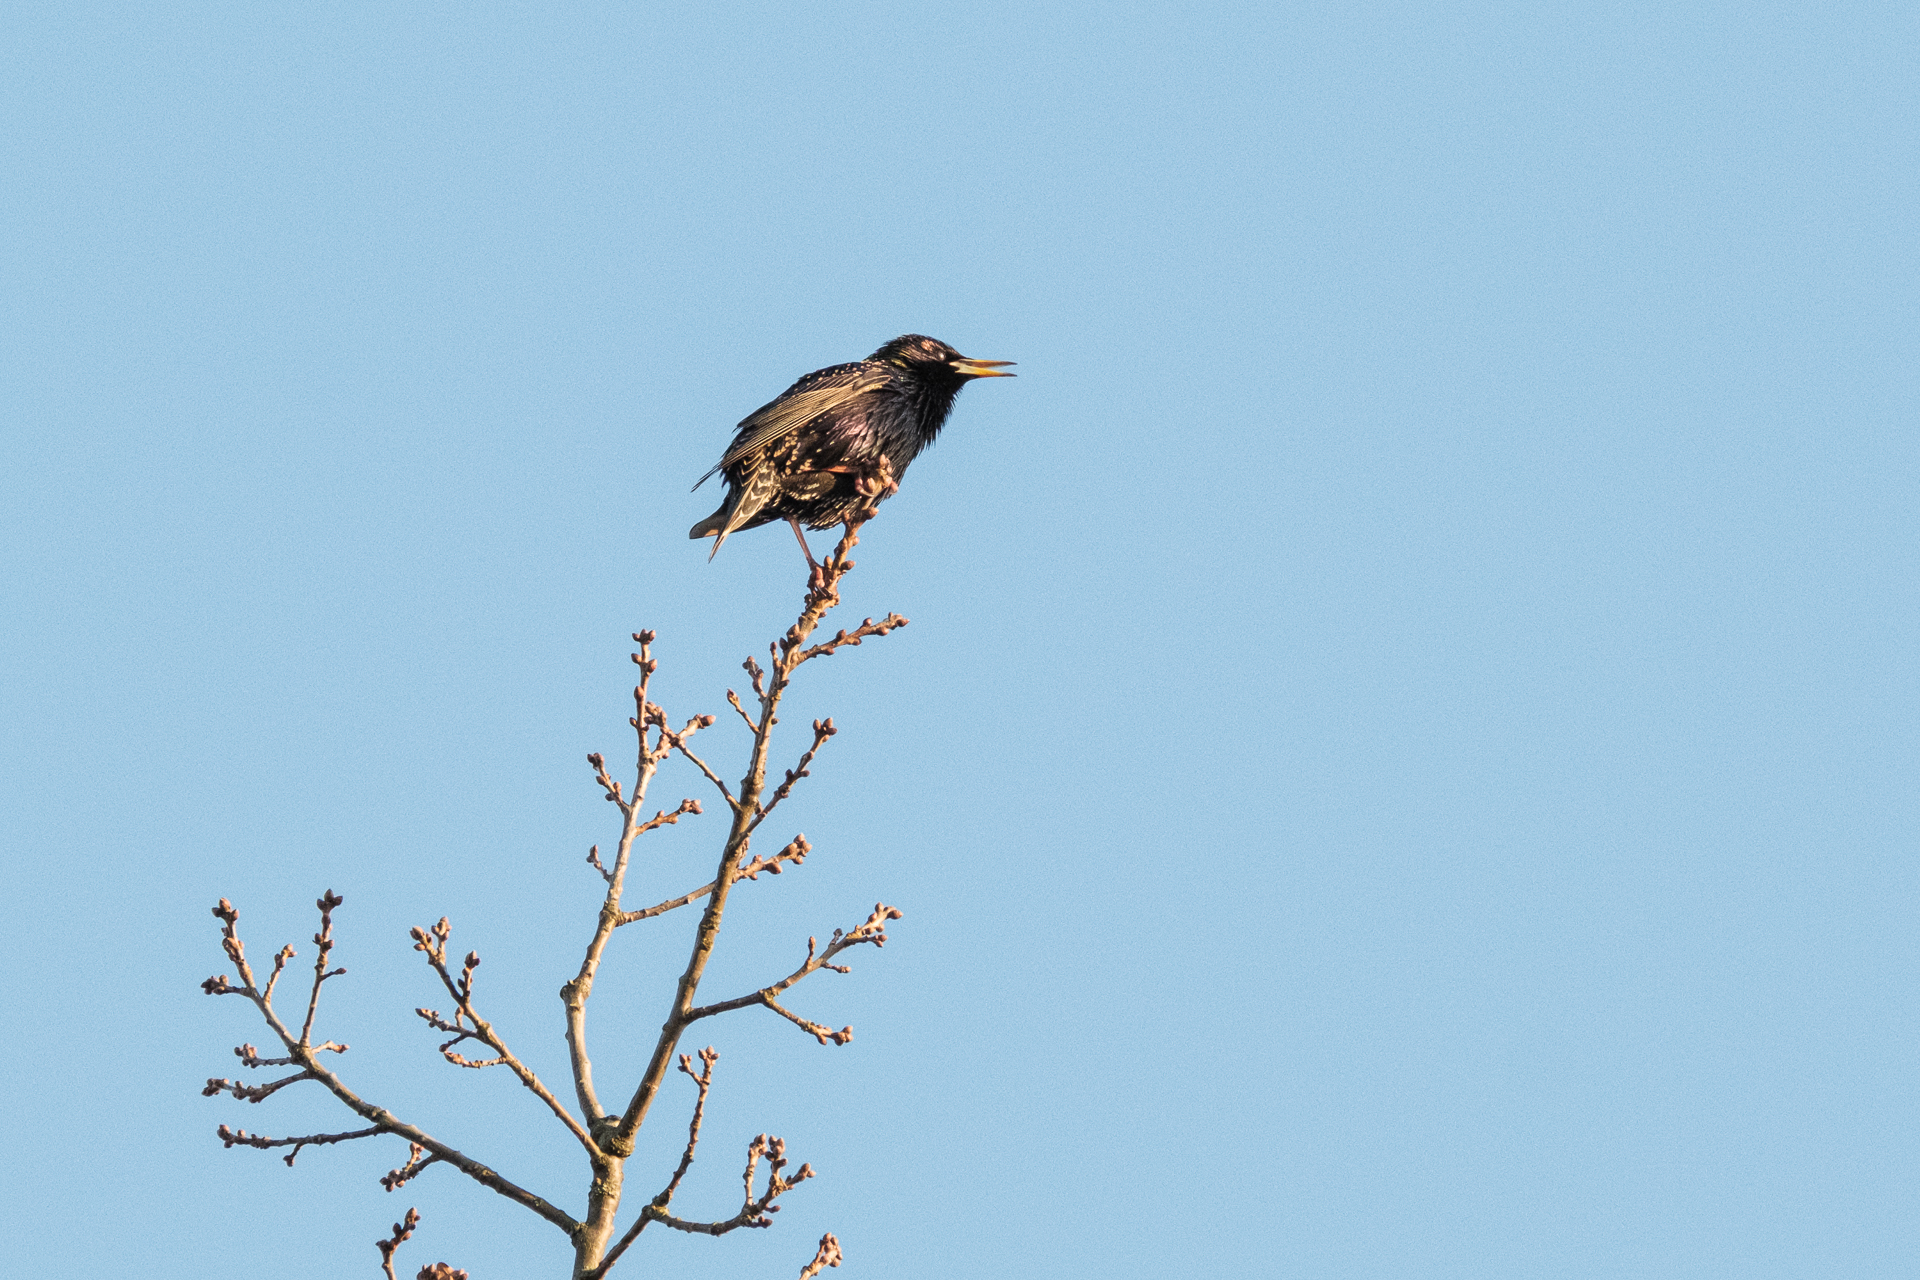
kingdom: Animalia
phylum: Chordata
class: Aves
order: Passeriformes
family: Sturnidae
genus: Sturnus
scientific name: Sturnus vulgaris
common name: Common starling
